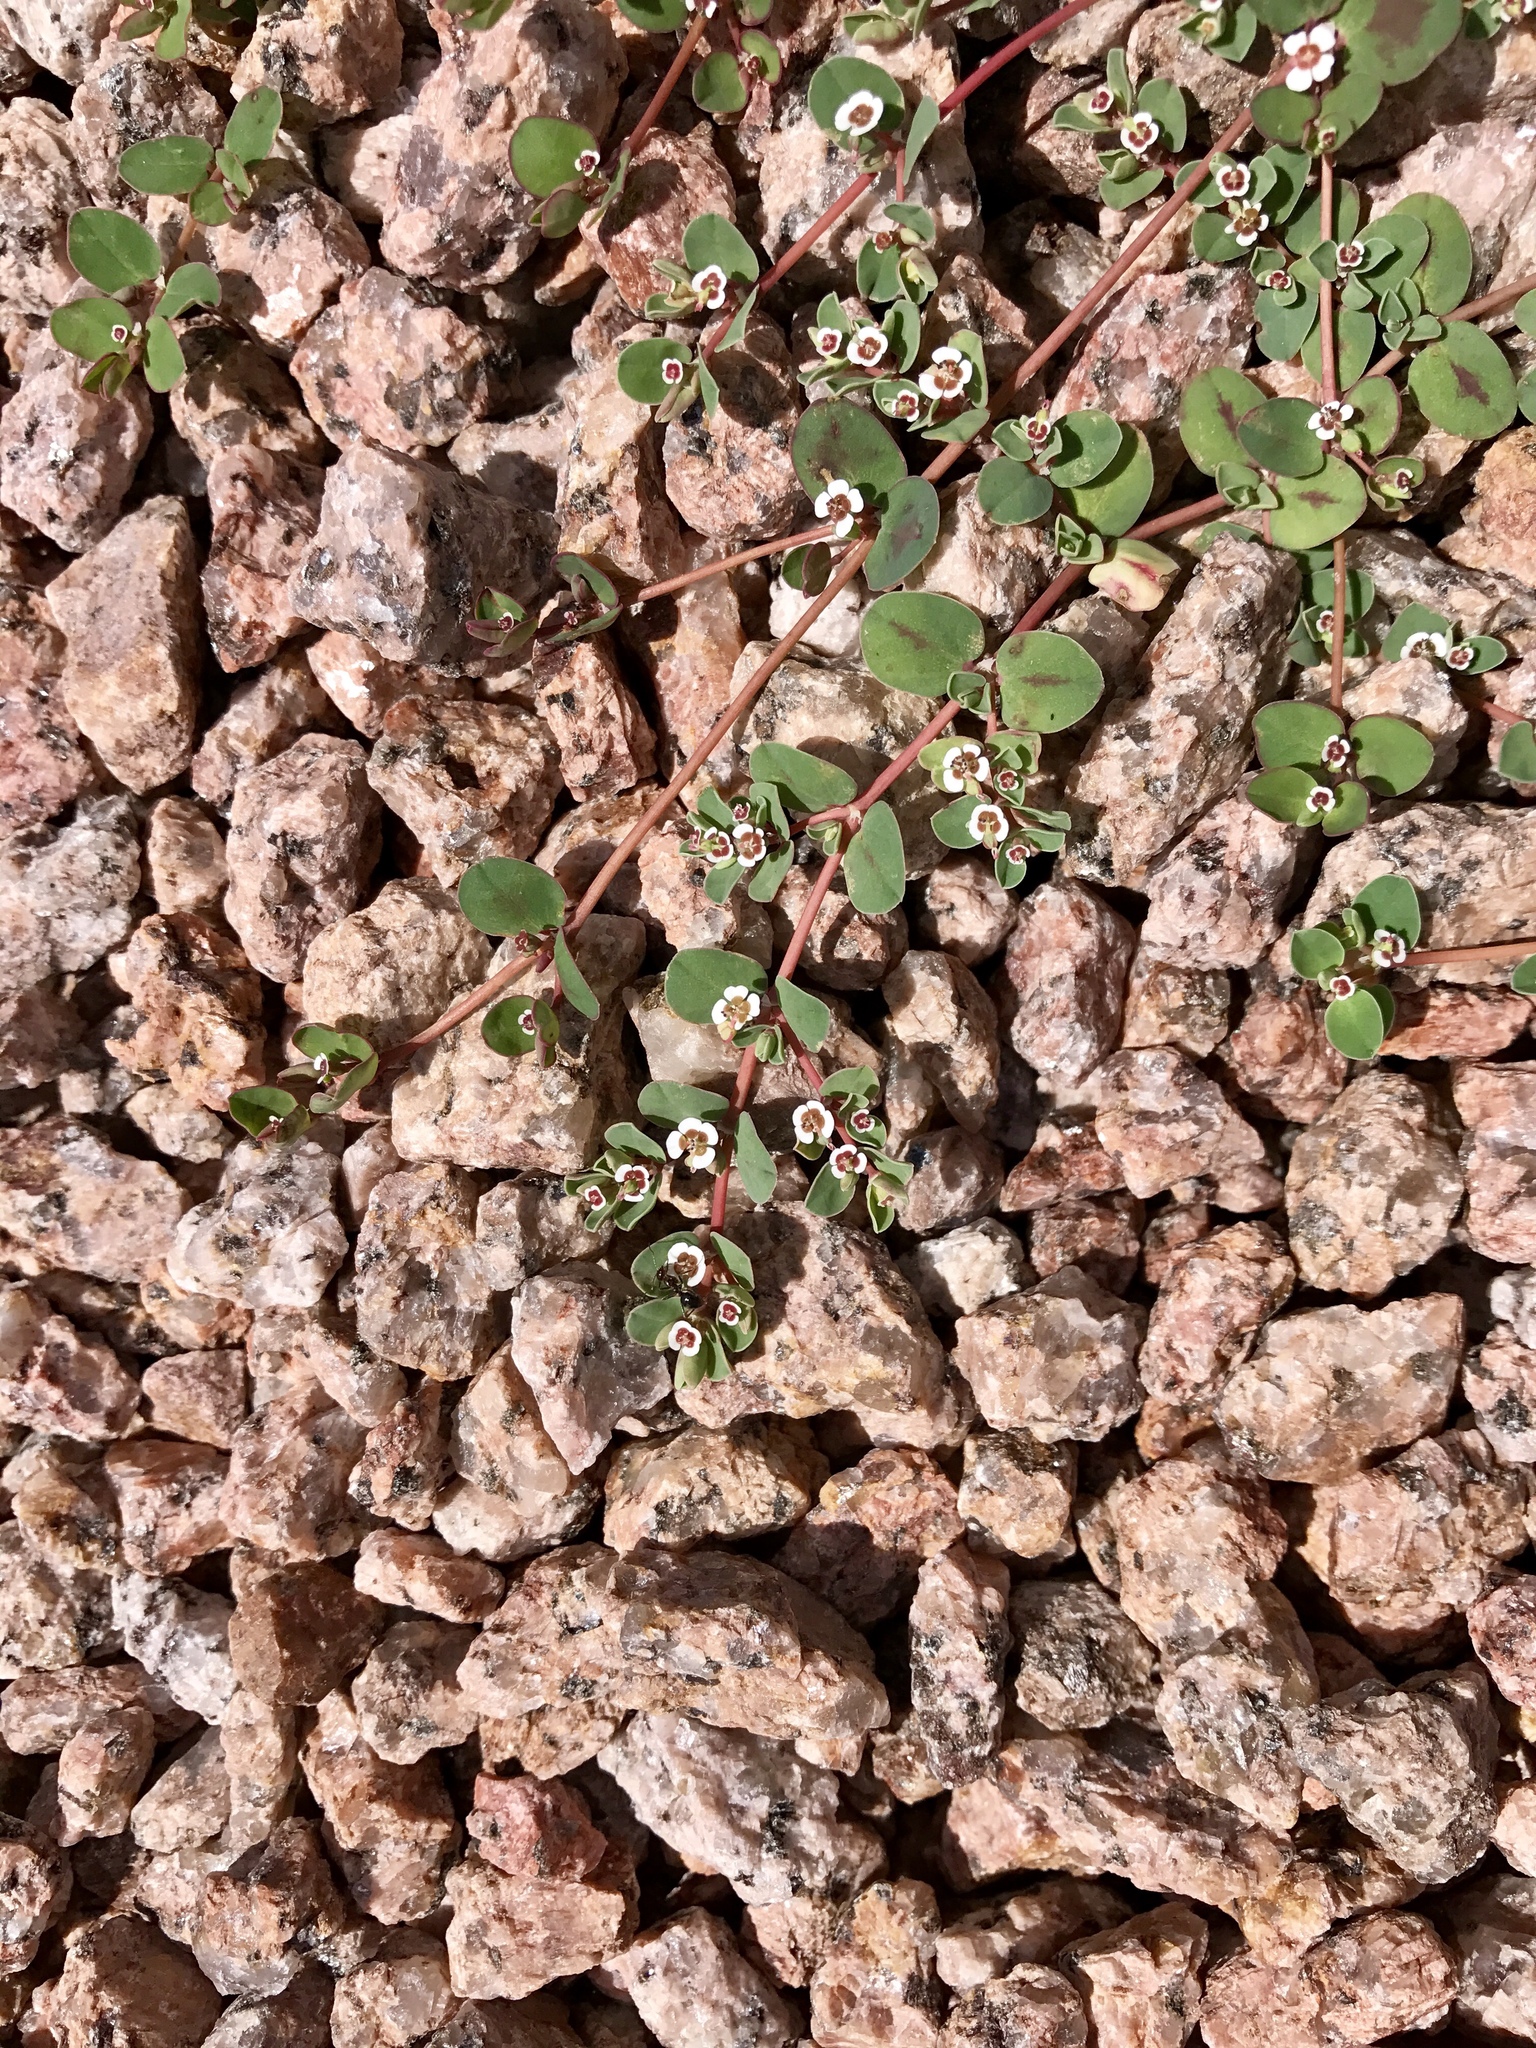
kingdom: Plantae
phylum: Tracheophyta
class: Magnoliopsida
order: Malpighiales
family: Euphorbiaceae
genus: Euphorbia
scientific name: Euphorbia albomarginata
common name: Whitemargin sandmat
